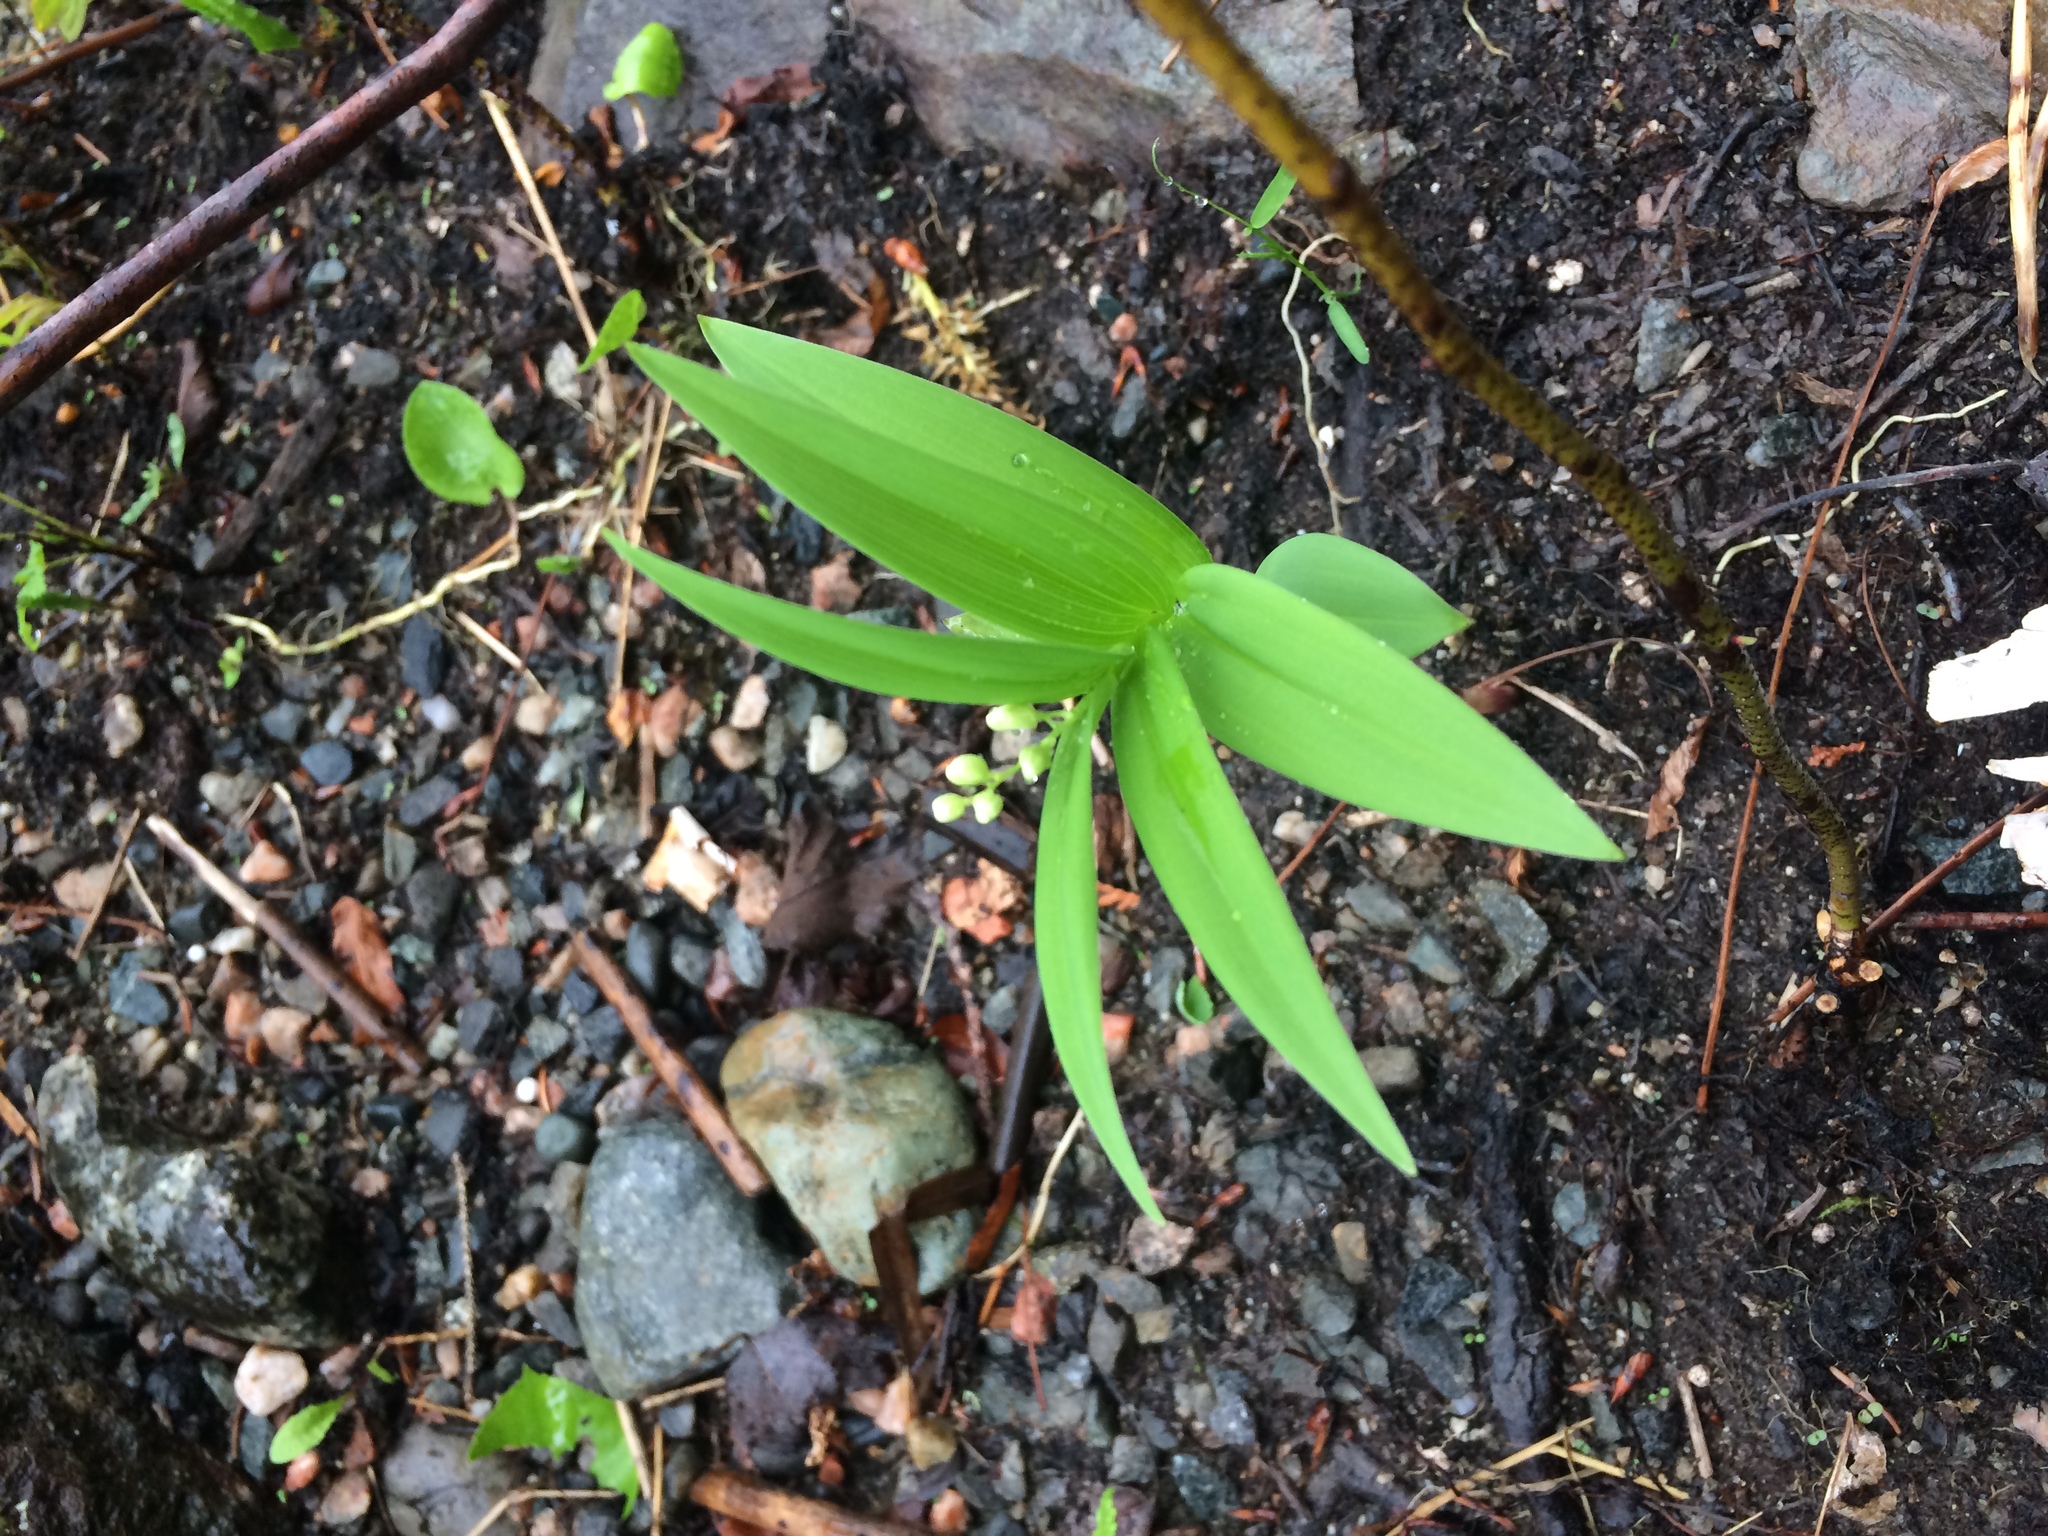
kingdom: Plantae
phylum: Tracheophyta
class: Liliopsida
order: Asparagales
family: Asparagaceae
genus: Maianthemum
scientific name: Maianthemum stellatum
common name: Little false solomon's seal
